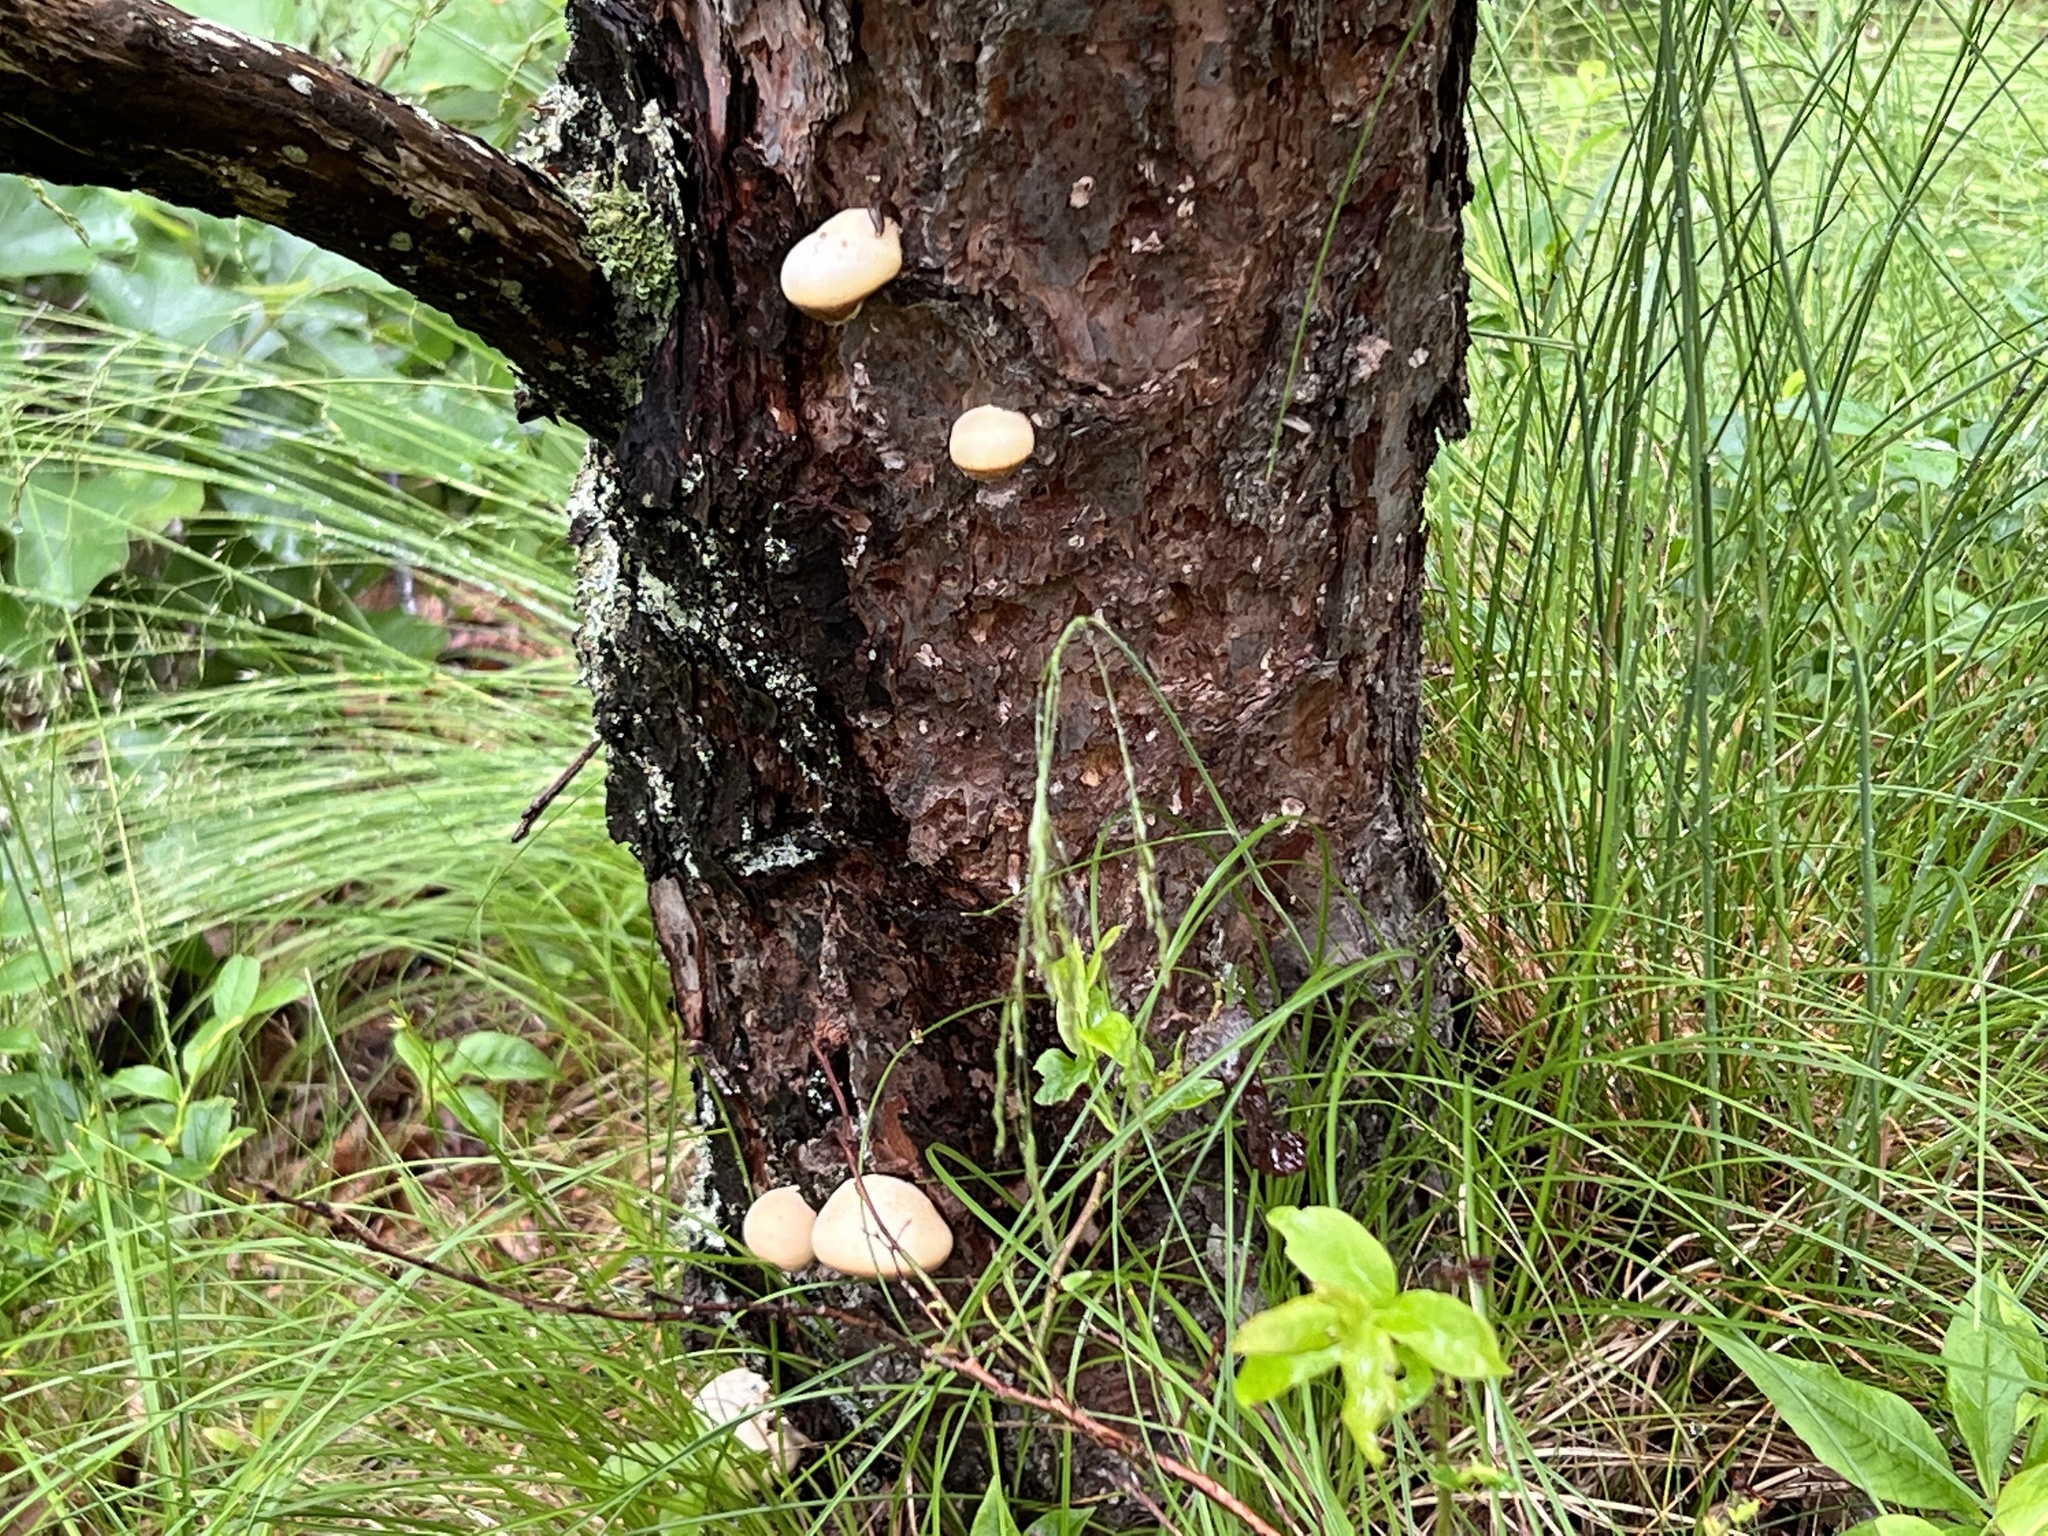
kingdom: Fungi
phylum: Basidiomycota
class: Agaricomycetes
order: Polyporales
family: Polyporaceae
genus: Cryptoporus
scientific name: Cryptoporus volvatus
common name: Veiled polypore
